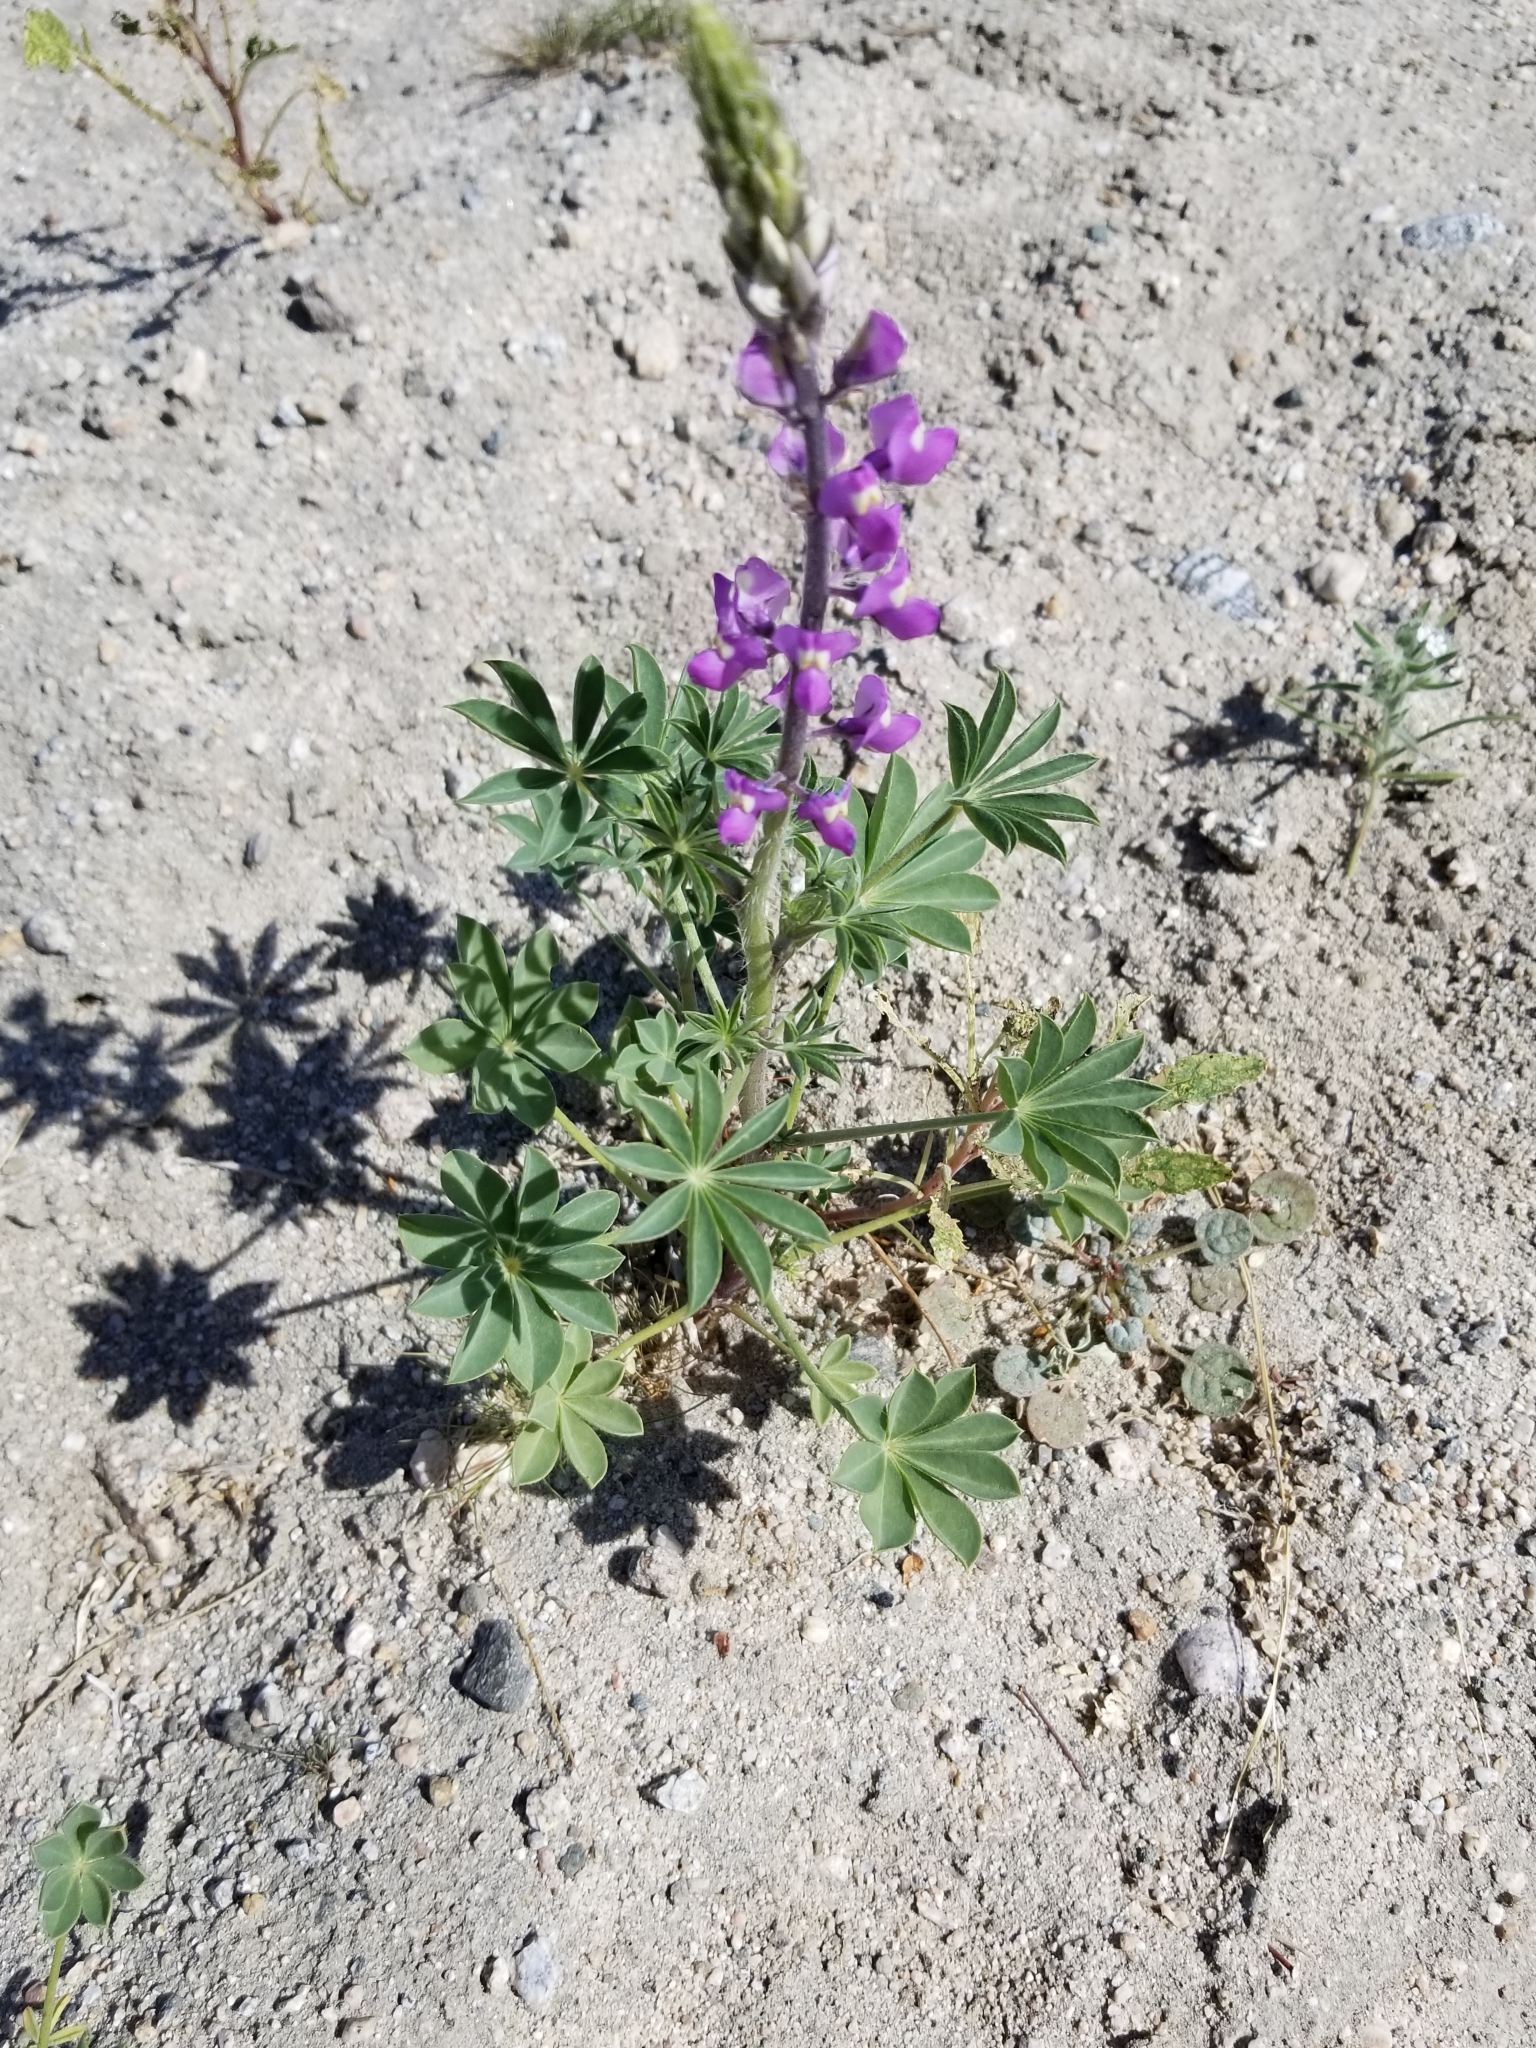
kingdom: Plantae
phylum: Tracheophyta
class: Magnoliopsida
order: Fabales
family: Fabaceae
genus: Lupinus
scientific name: Lupinus arizonicus
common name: Arizona lupine
